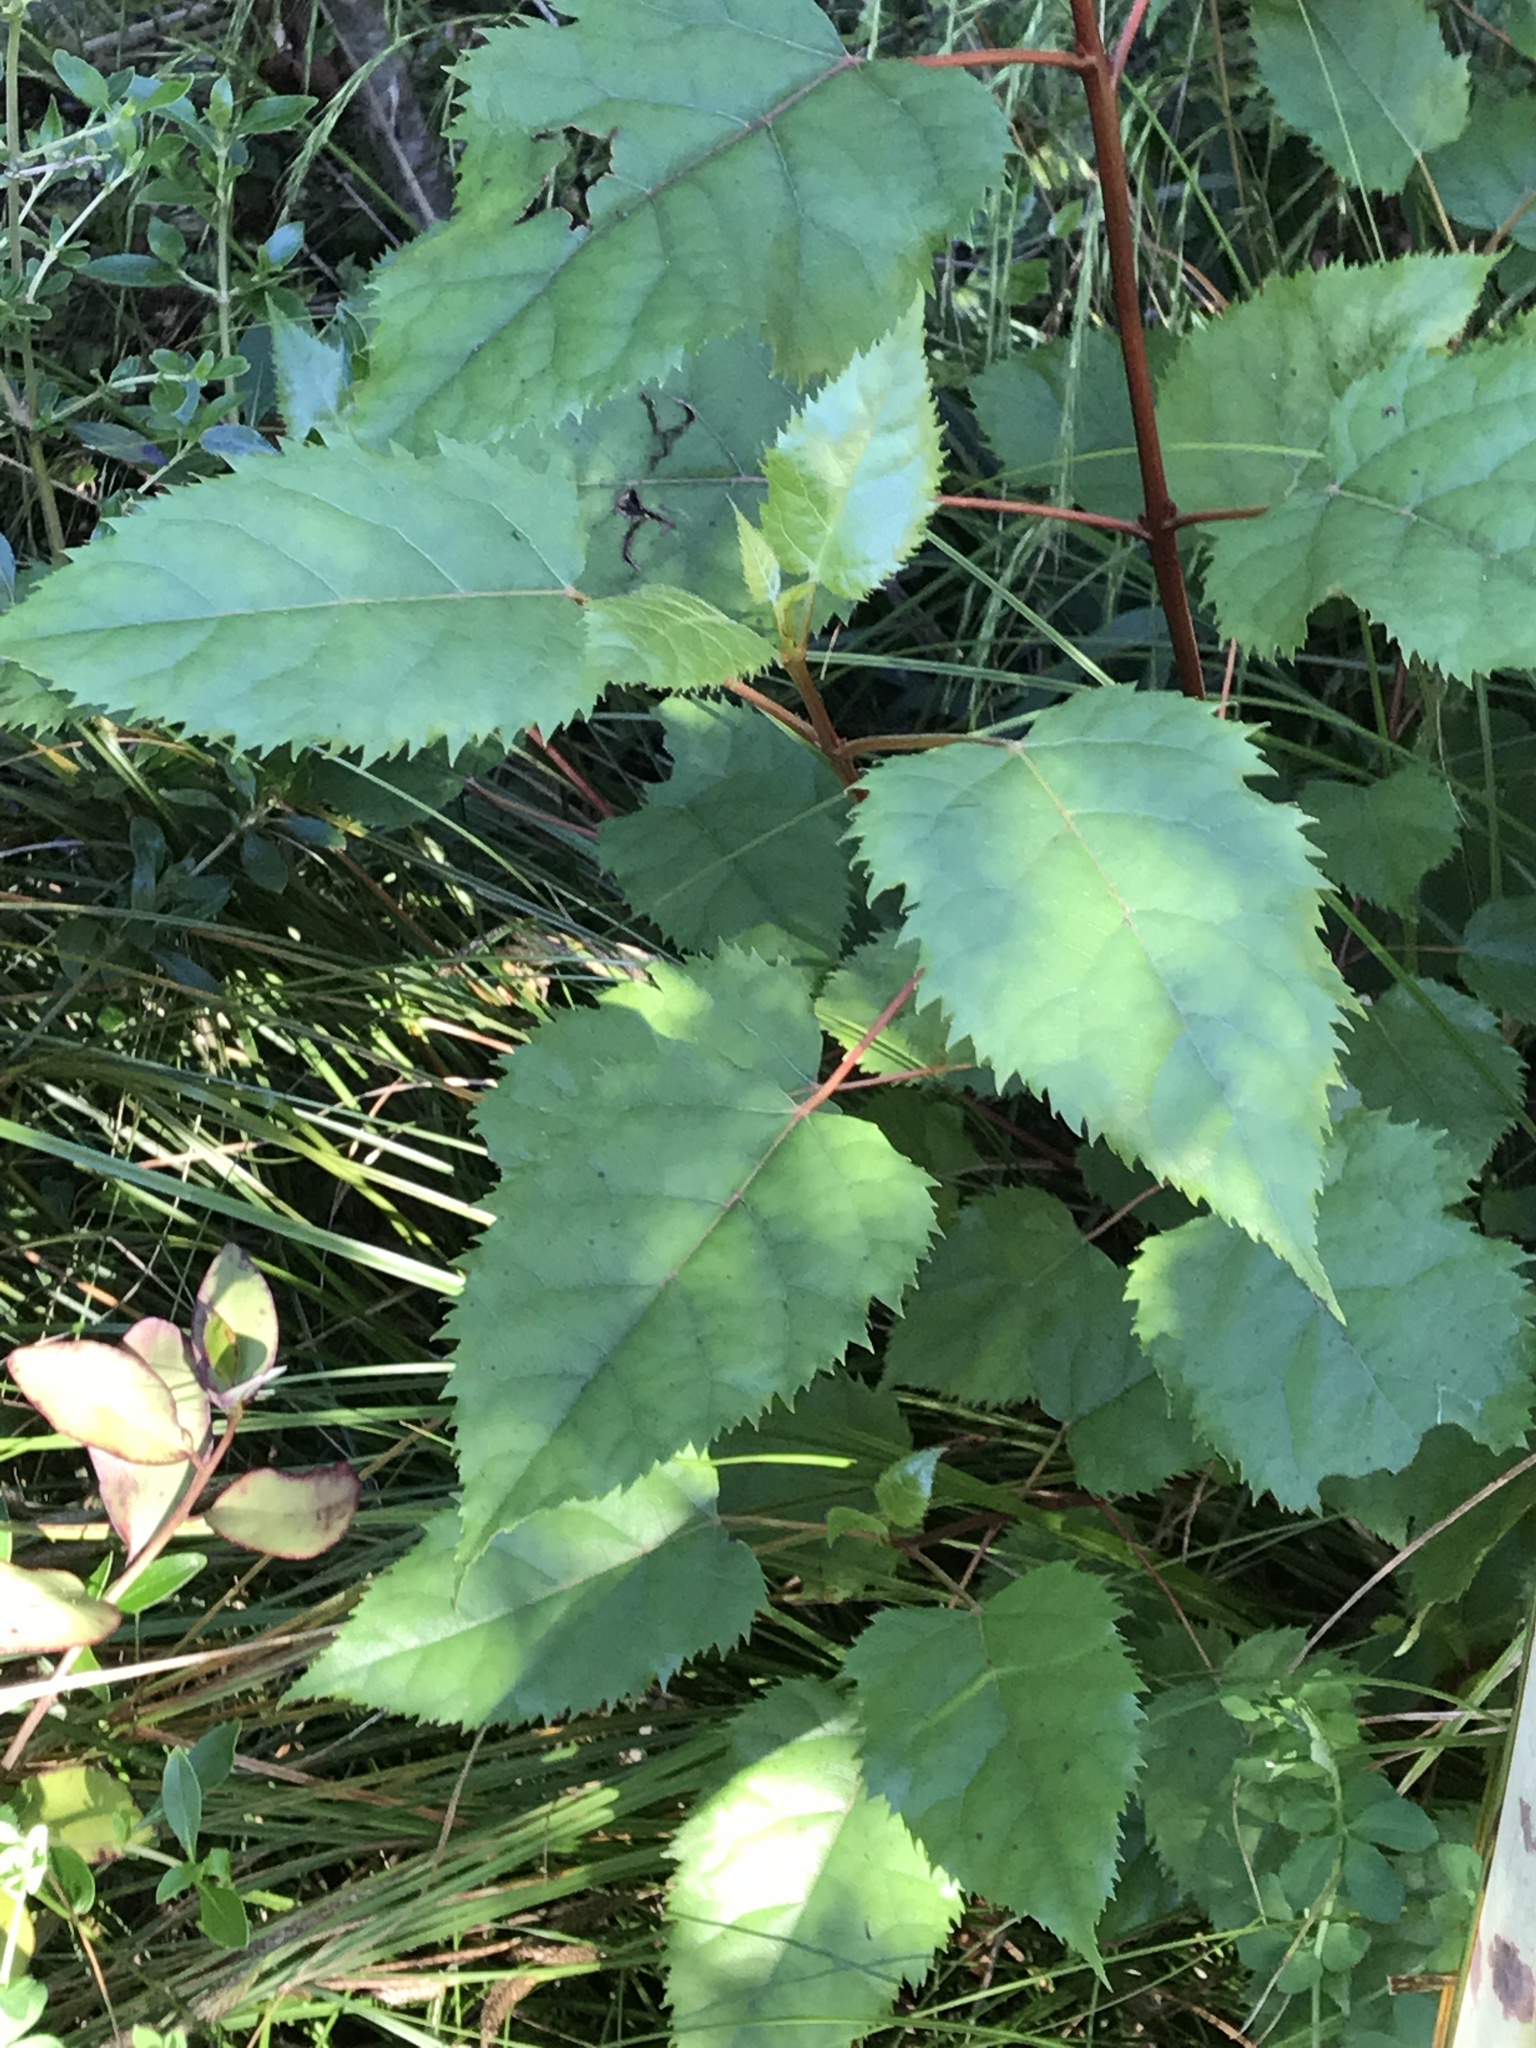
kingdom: Plantae
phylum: Tracheophyta
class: Magnoliopsida
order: Oxalidales
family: Elaeocarpaceae
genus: Aristotelia
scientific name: Aristotelia serrata
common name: New zealand wineberry
